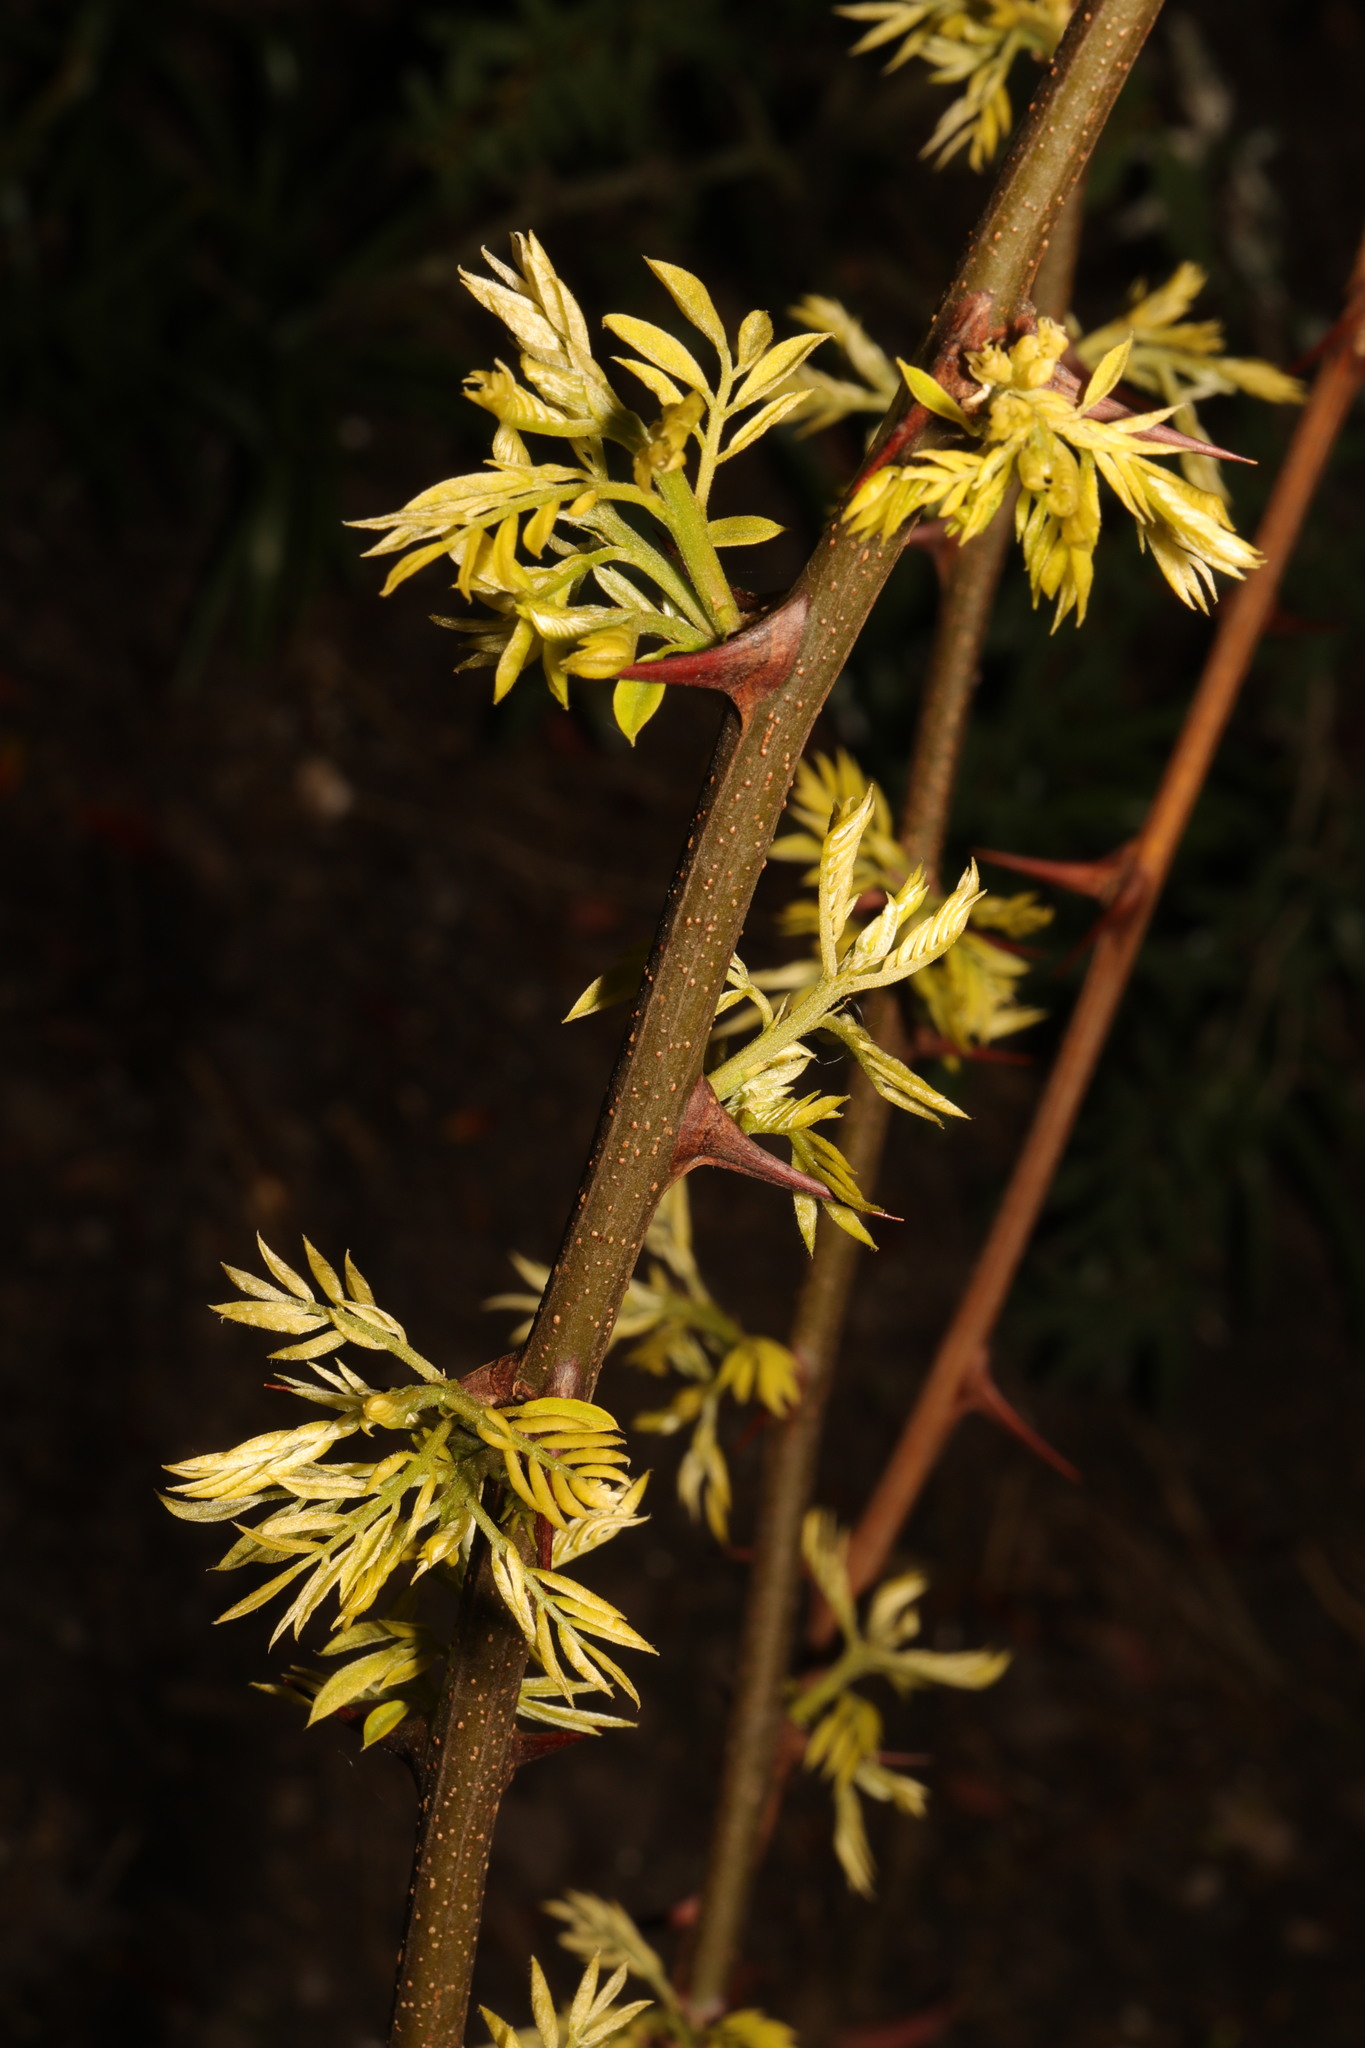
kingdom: Plantae
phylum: Tracheophyta
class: Magnoliopsida
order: Fabales
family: Fabaceae
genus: Gleditsia
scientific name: Gleditsia triacanthos
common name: Common honeylocust
